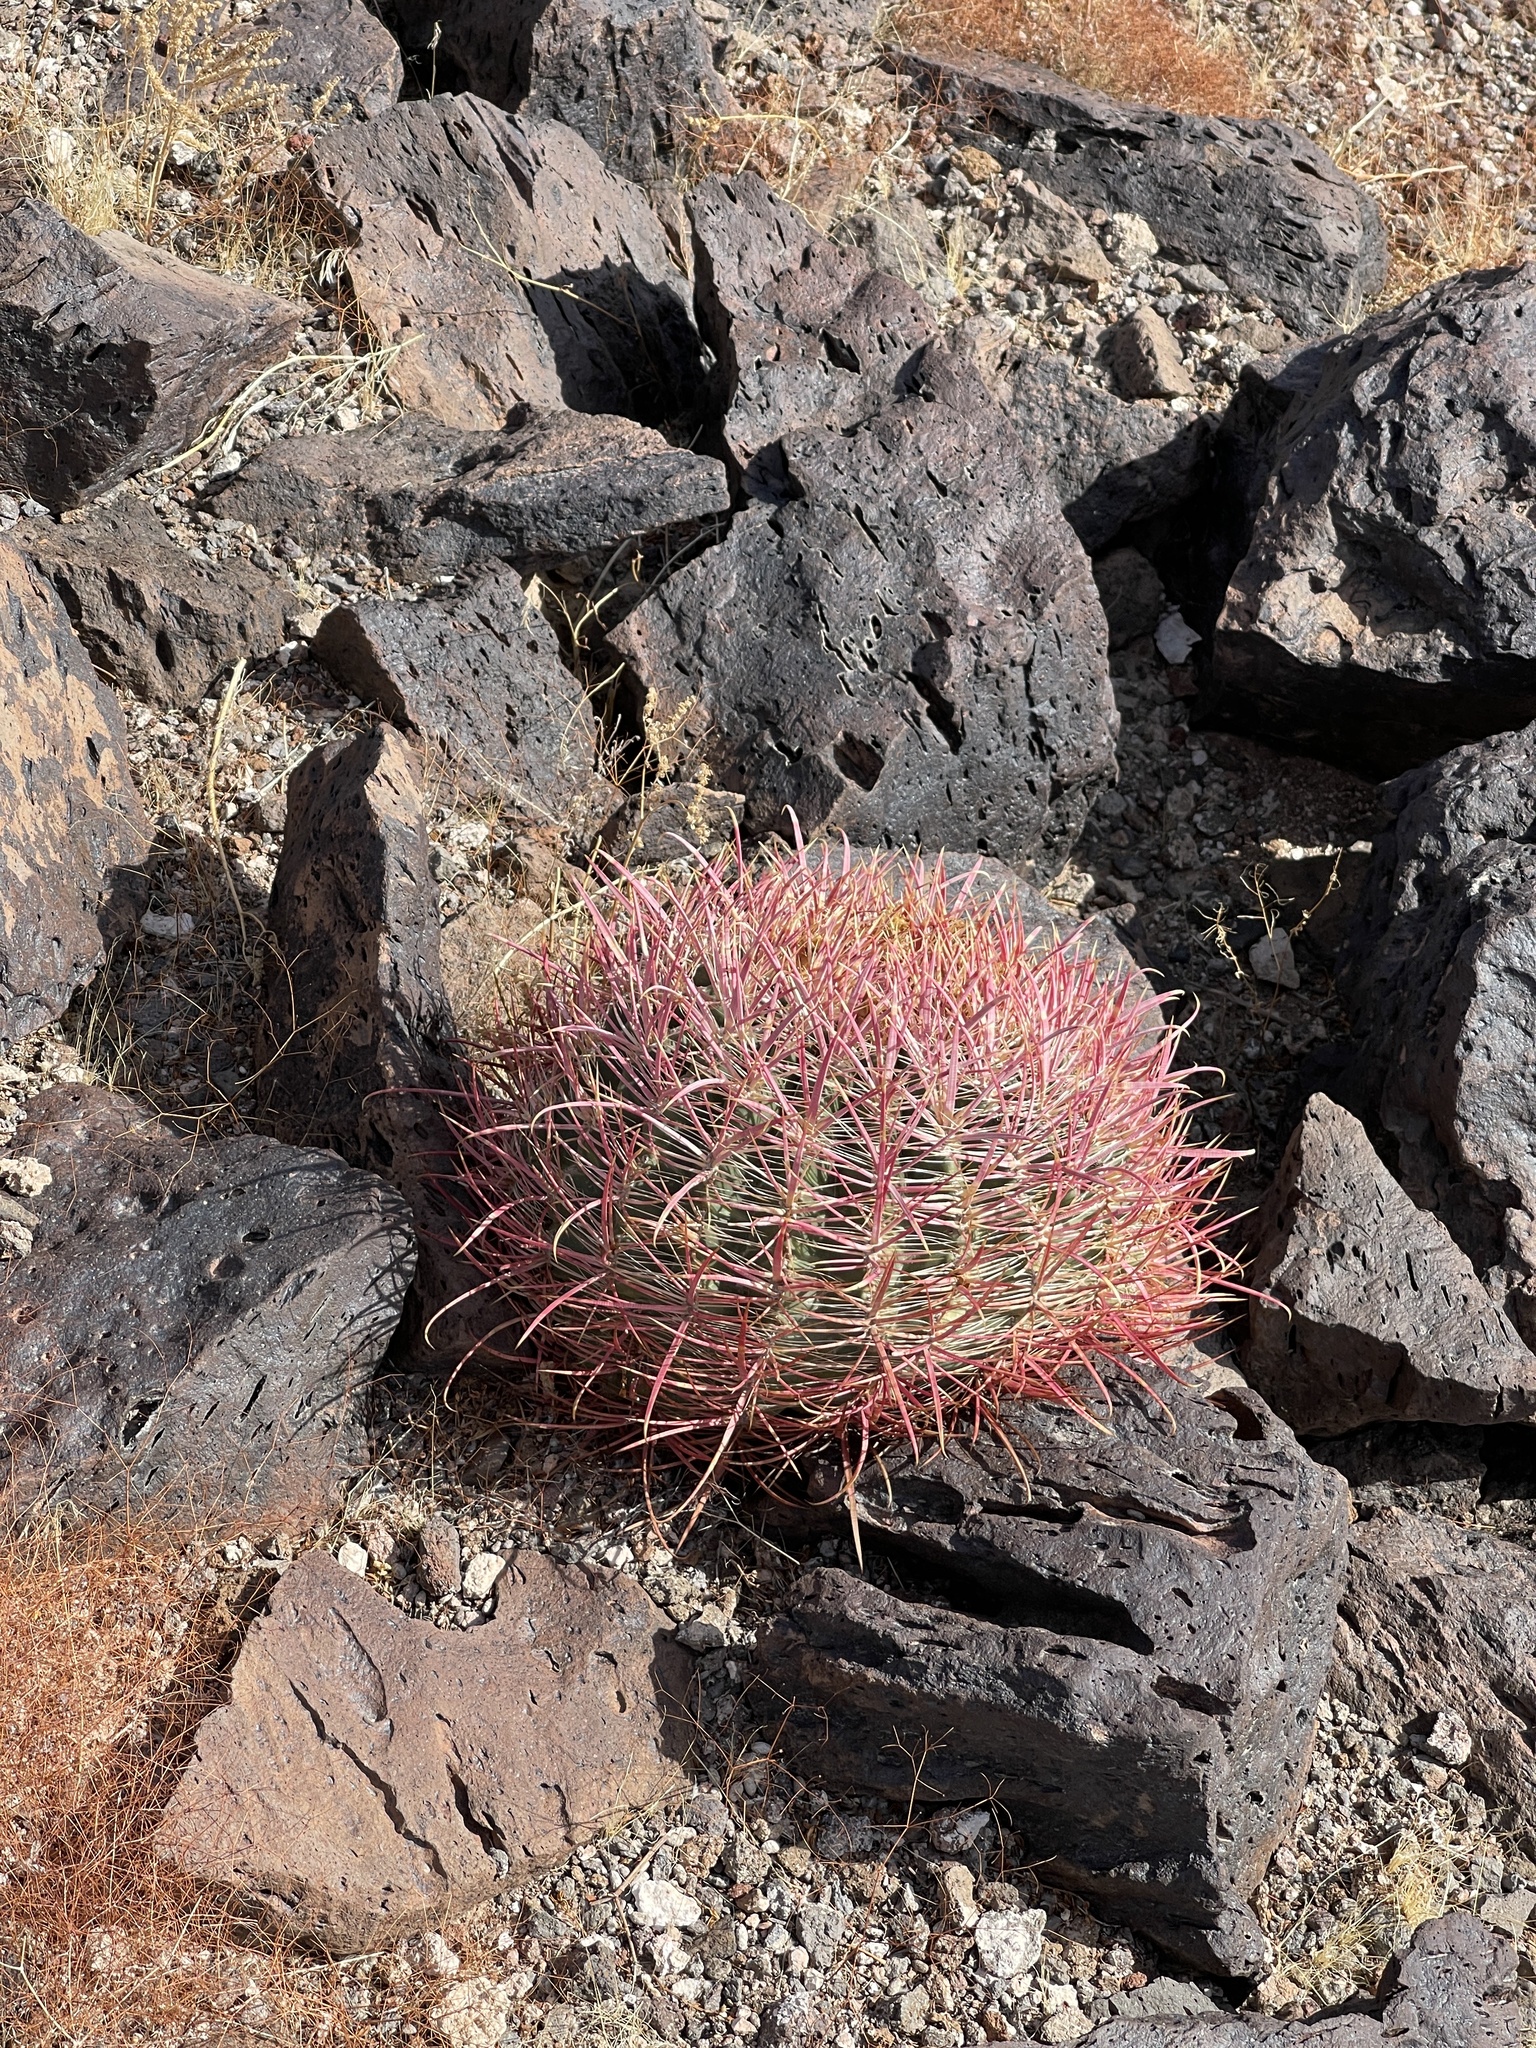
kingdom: Plantae
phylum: Tracheophyta
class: Magnoliopsida
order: Caryophyllales
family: Cactaceae
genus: Ferocactus
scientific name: Ferocactus cylindraceus
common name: California barrel cactus
